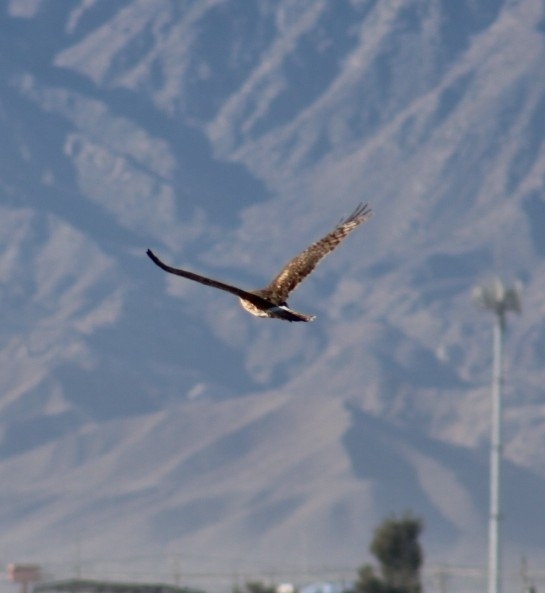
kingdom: Animalia
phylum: Chordata
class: Aves
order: Accipitriformes
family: Accipitridae
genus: Circus
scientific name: Circus cyaneus
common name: Hen harrier
